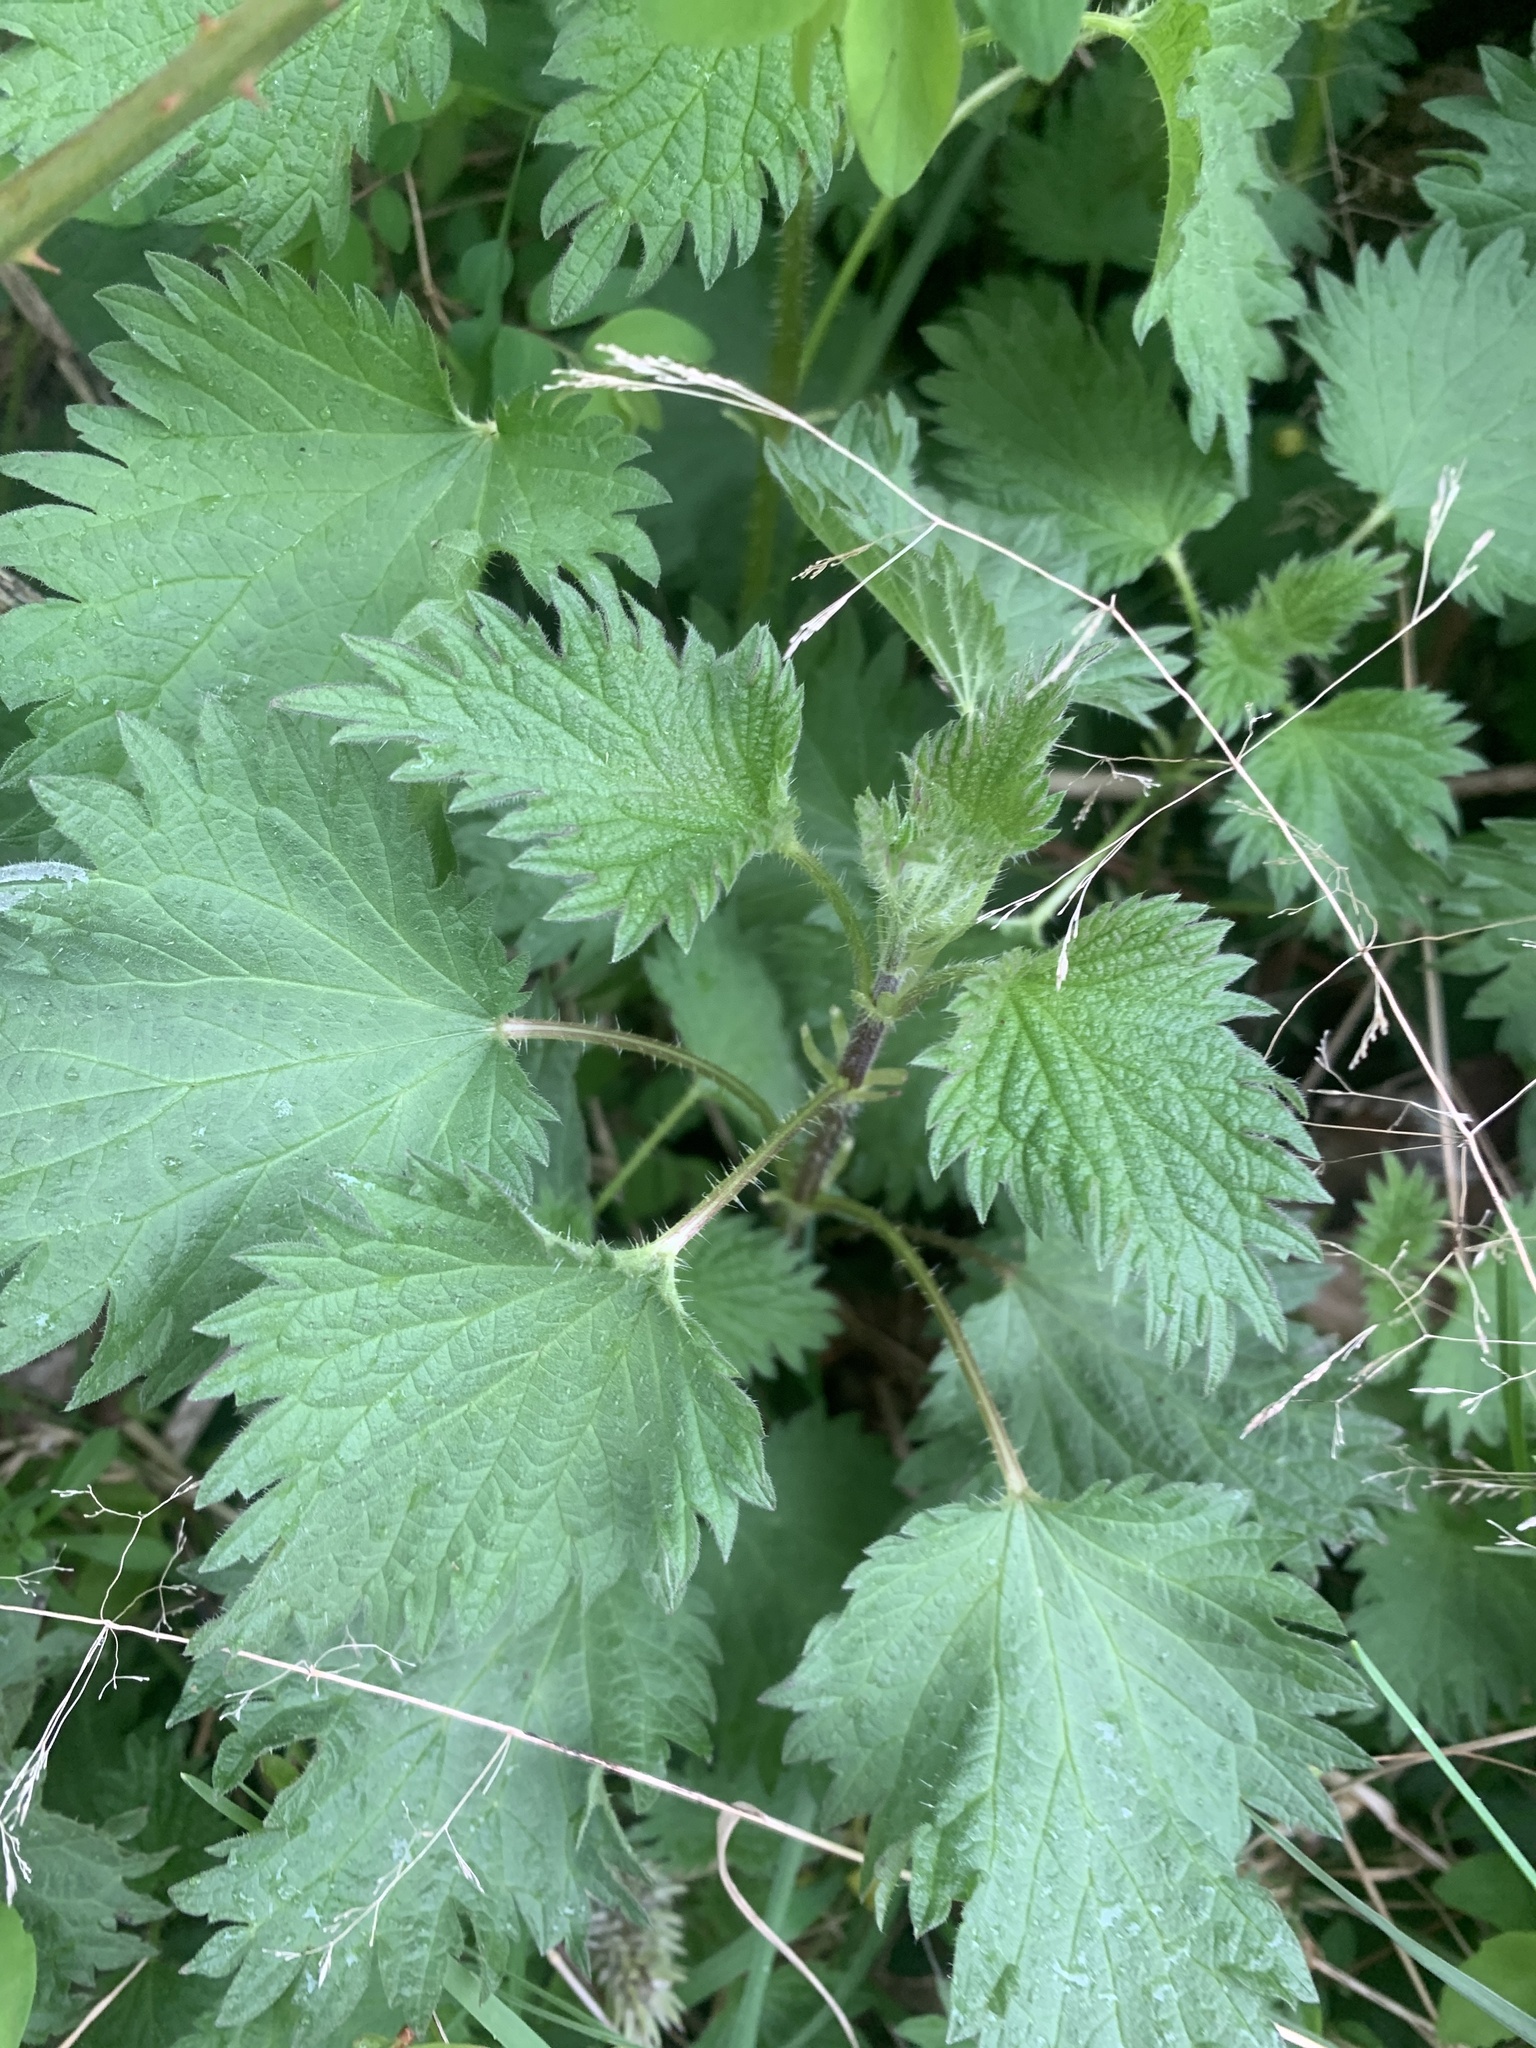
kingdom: Plantae
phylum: Tracheophyta
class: Magnoliopsida
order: Rosales
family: Urticaceae
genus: Urtica
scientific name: Urtica dioica
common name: Common nettle
